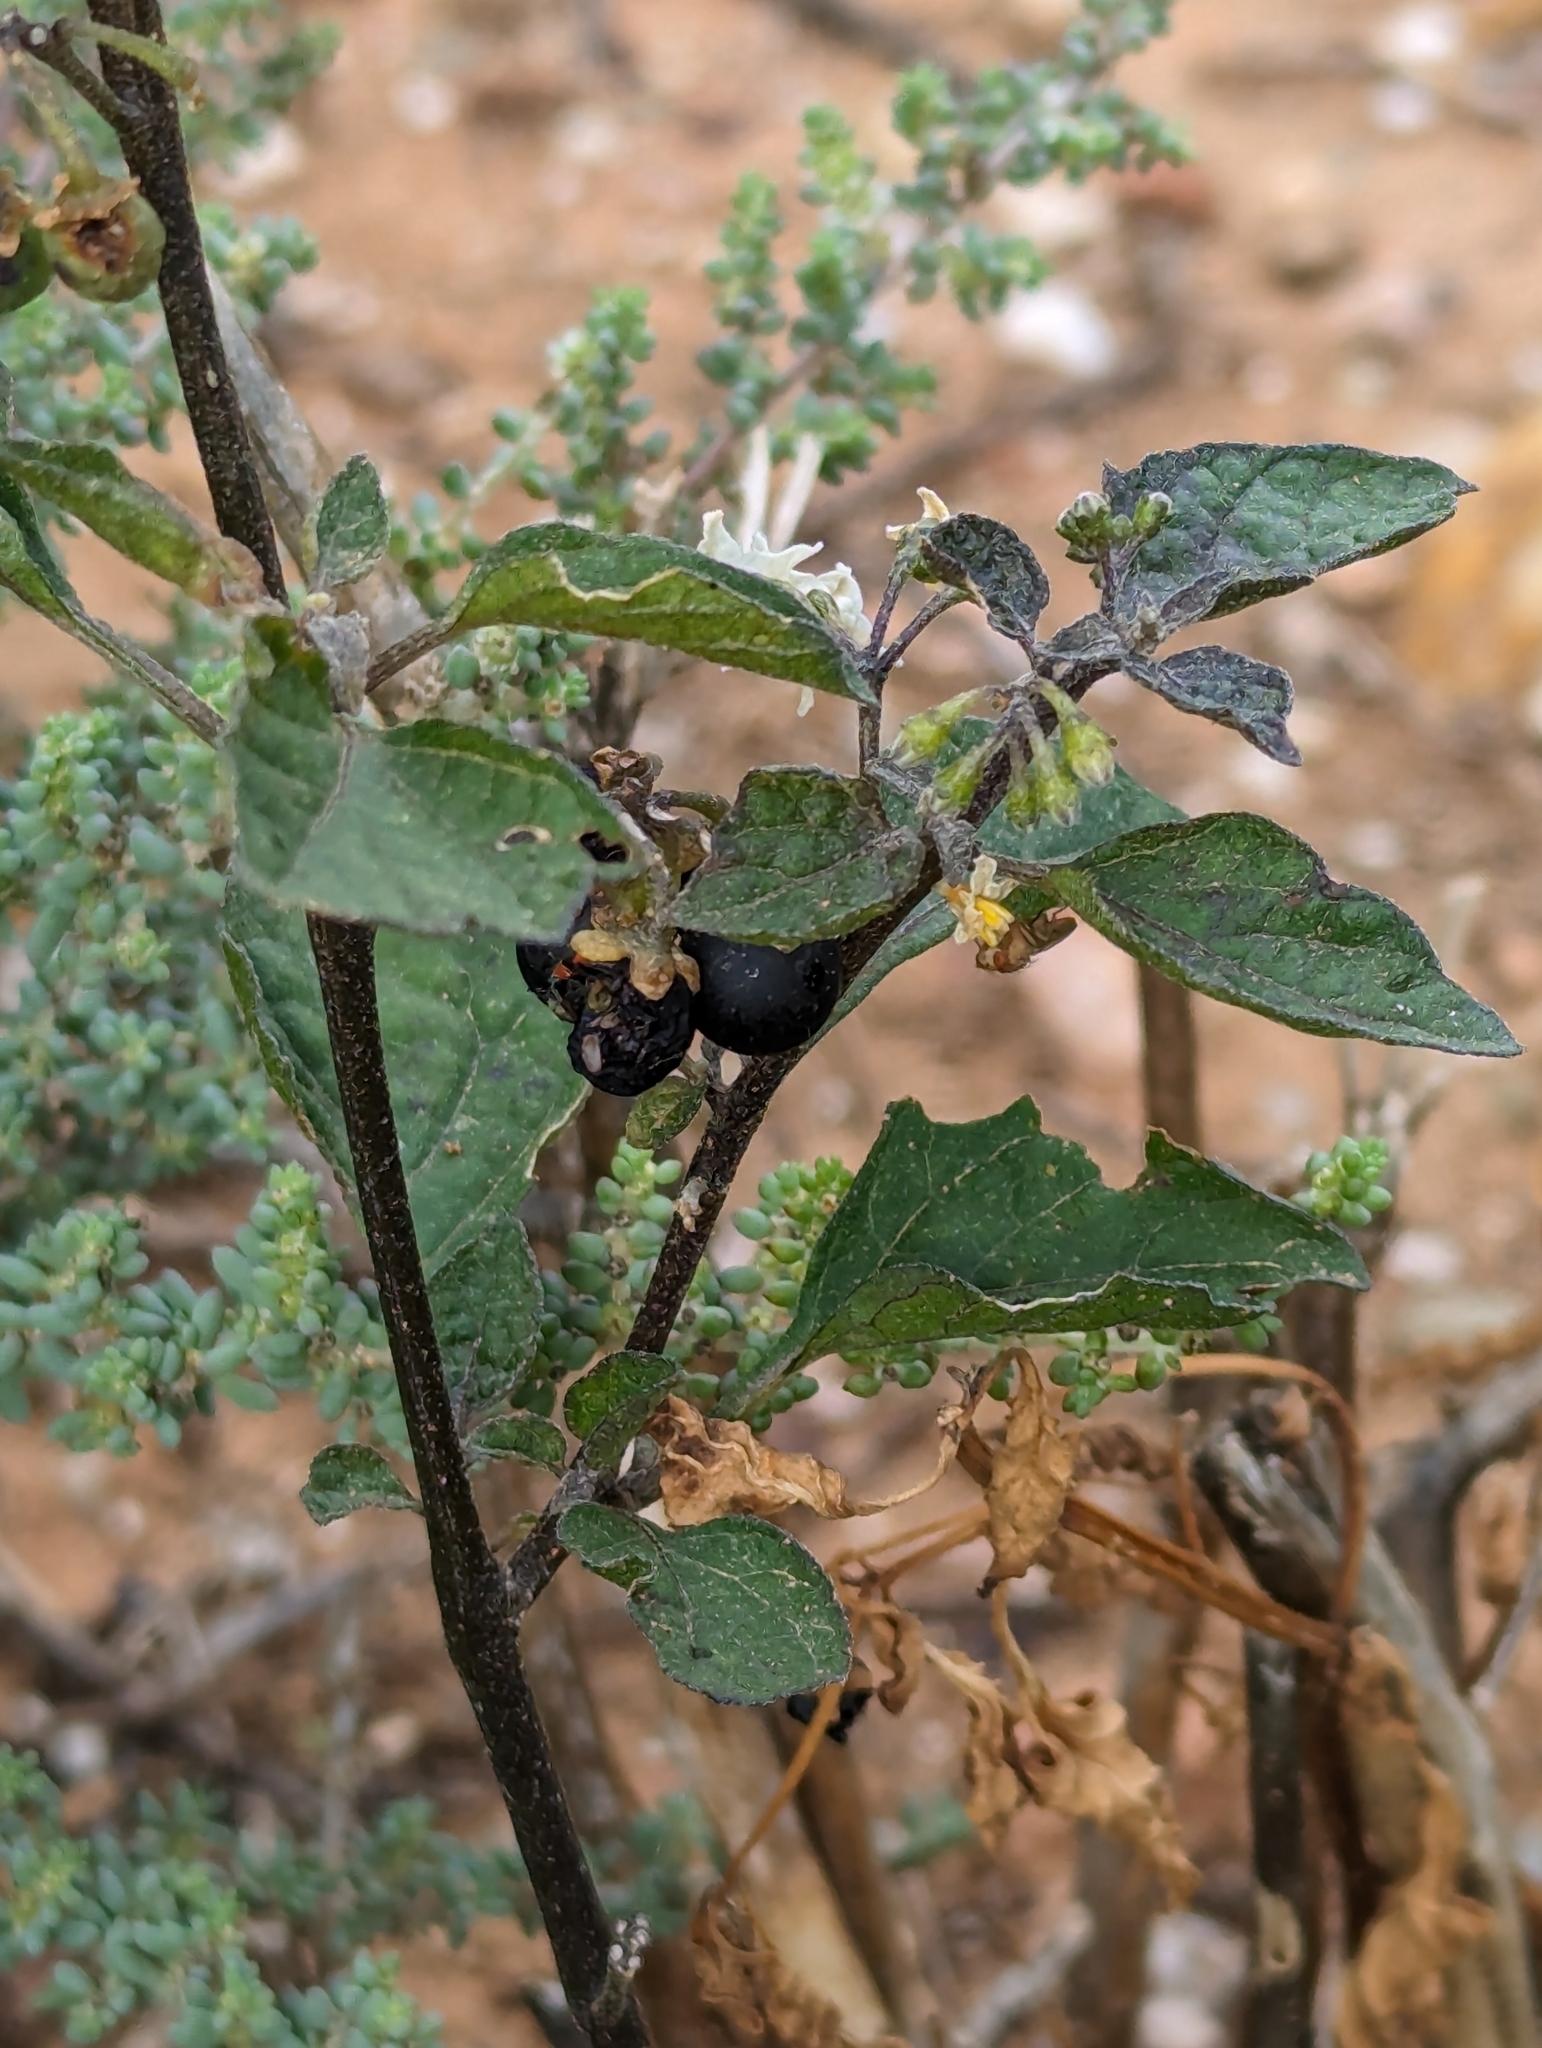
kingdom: Plantae
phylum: Tracheophyta
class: Magnoliopsida
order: Solanales
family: Solanaceae
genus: Solanum
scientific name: Solanum nigrum
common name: Black nightshade
